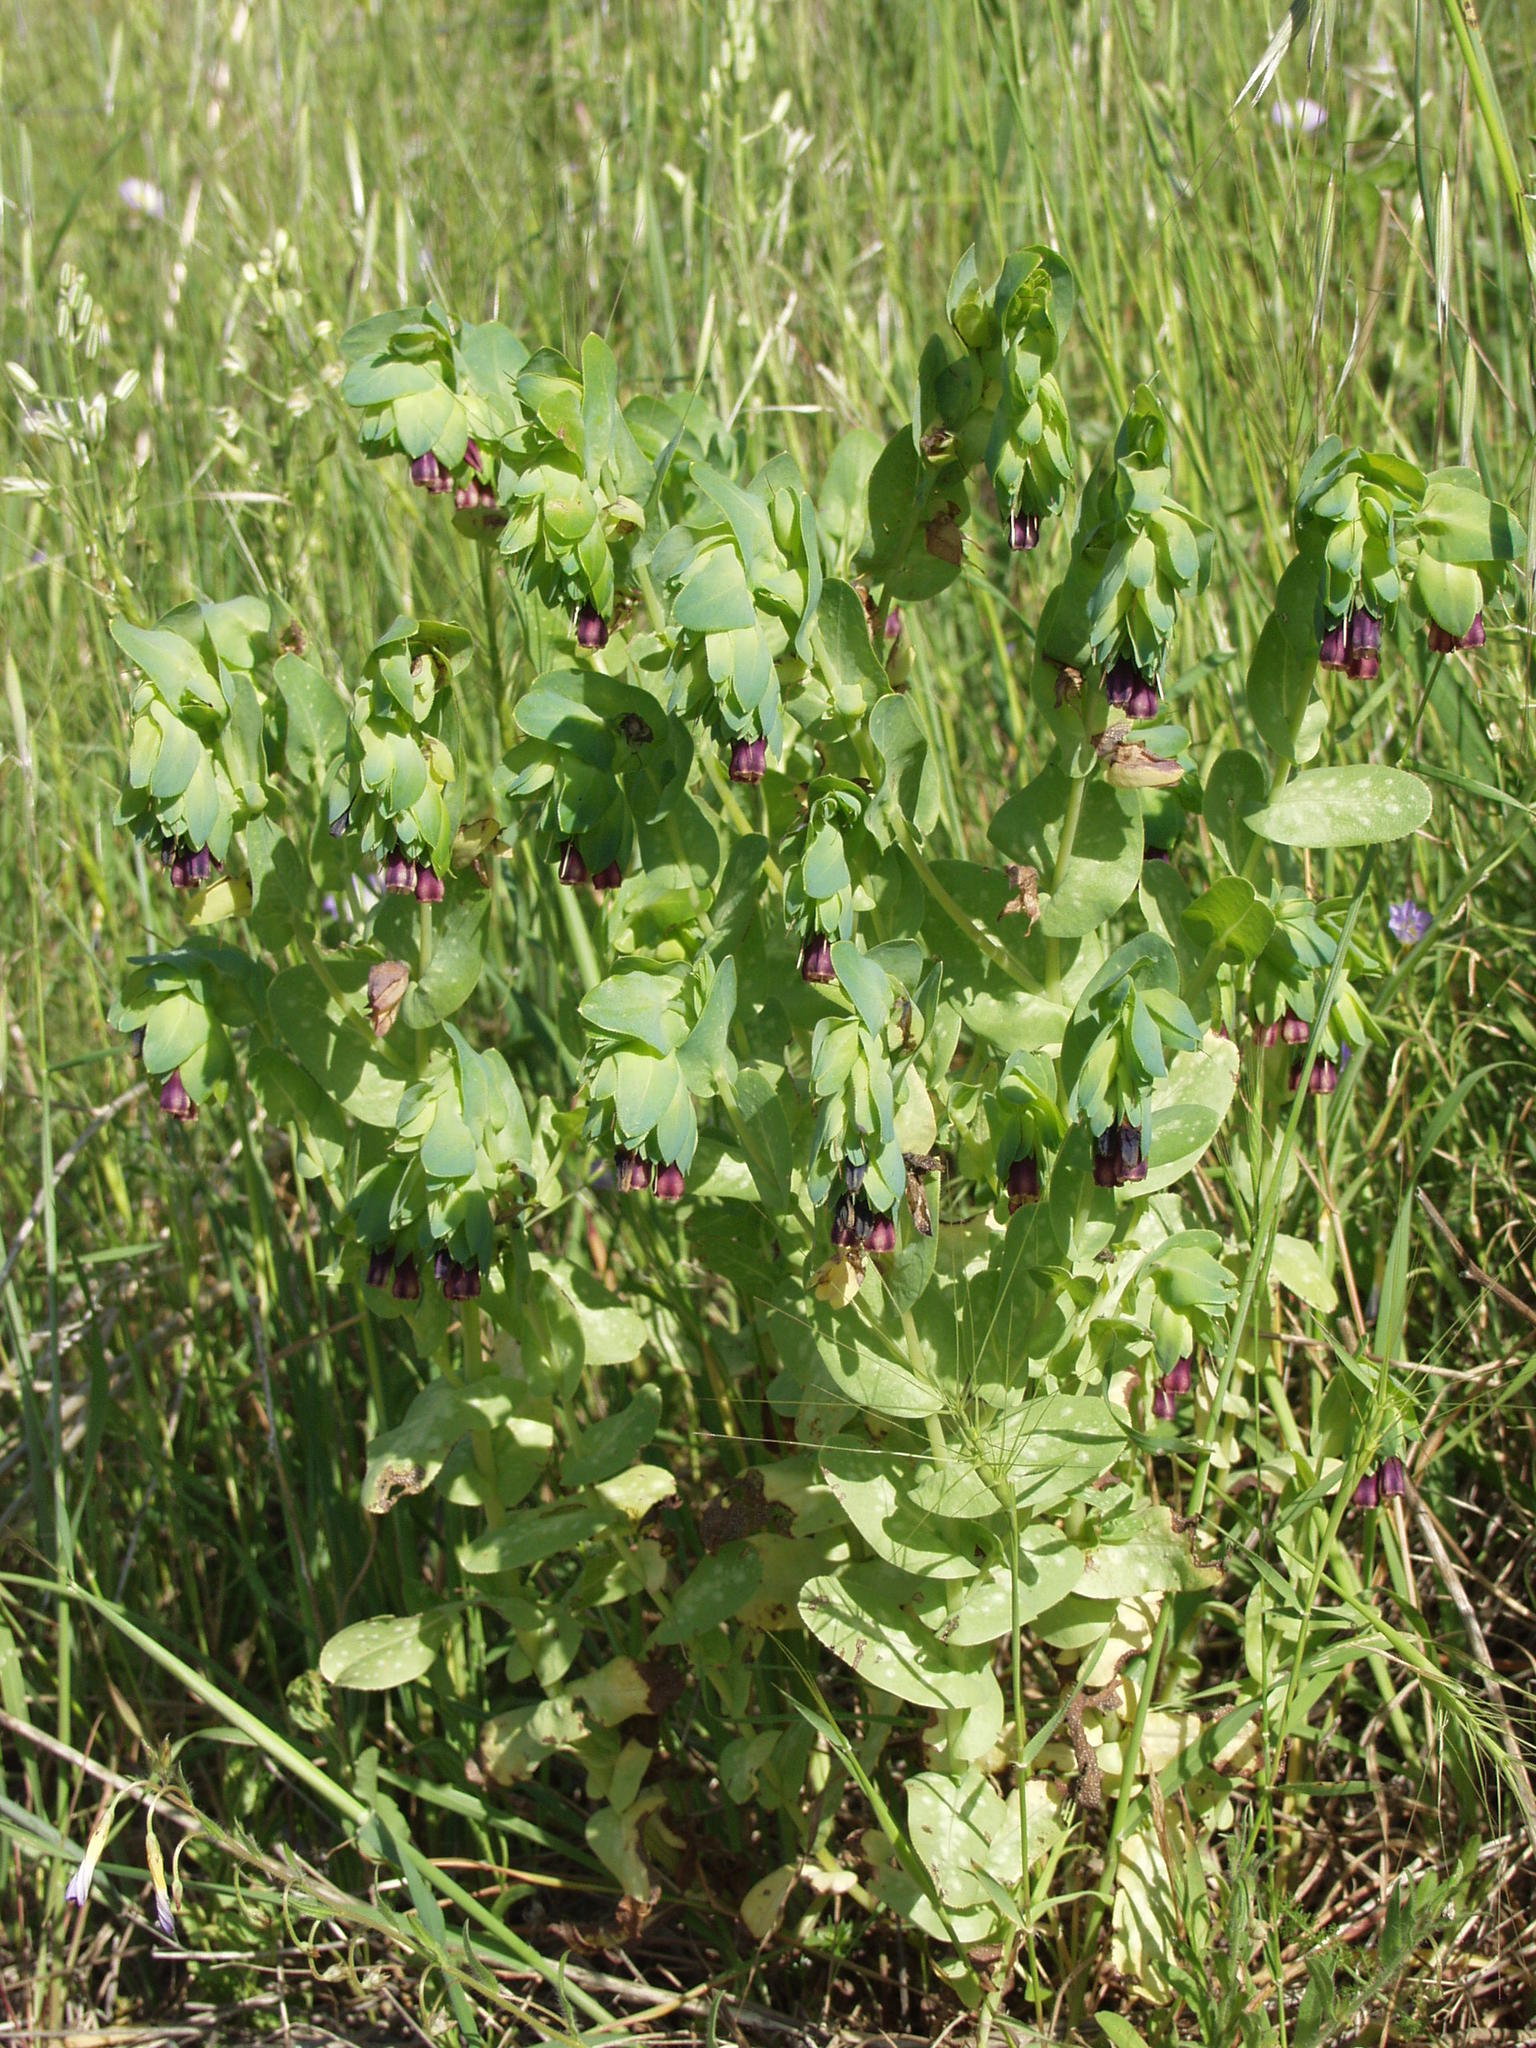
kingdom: Plantae
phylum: Tracheophyta
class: Magnoliopsida
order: Boraginales
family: Boraginaceae
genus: Cerinthe
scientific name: Cerinthe major
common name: Greater honeywort
